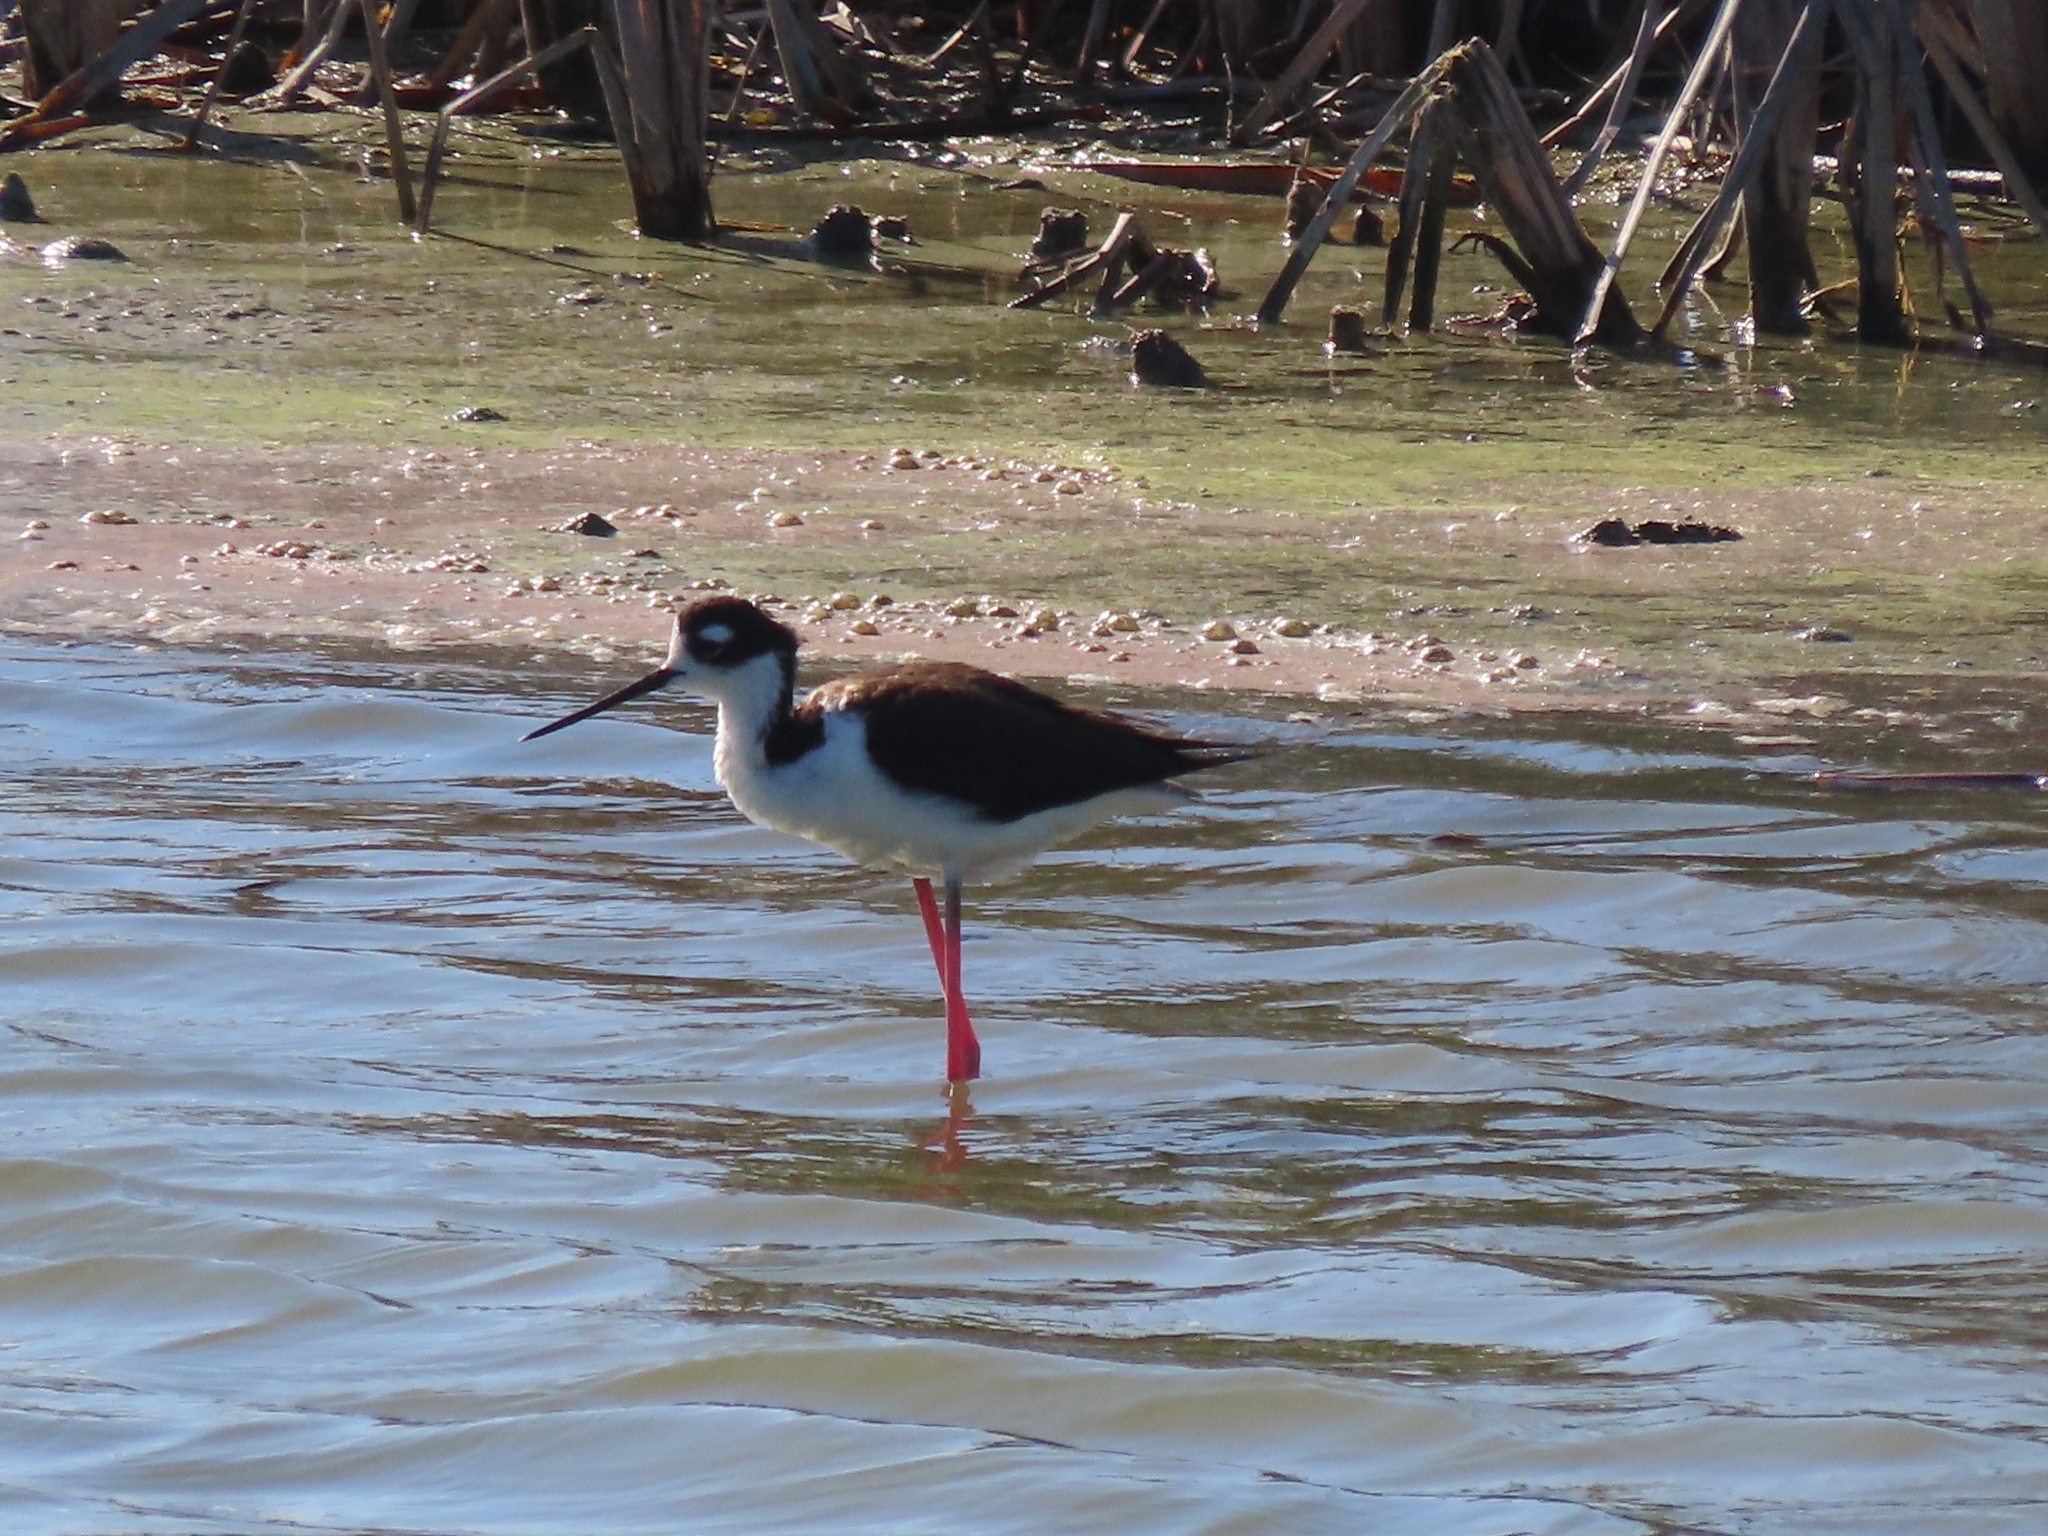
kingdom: Animalia
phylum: Chordata
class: Aves
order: Charadriiformes
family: Recurvirostridae
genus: Himantopus
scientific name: Himantopus mexicanus
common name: Black-necked stilt
